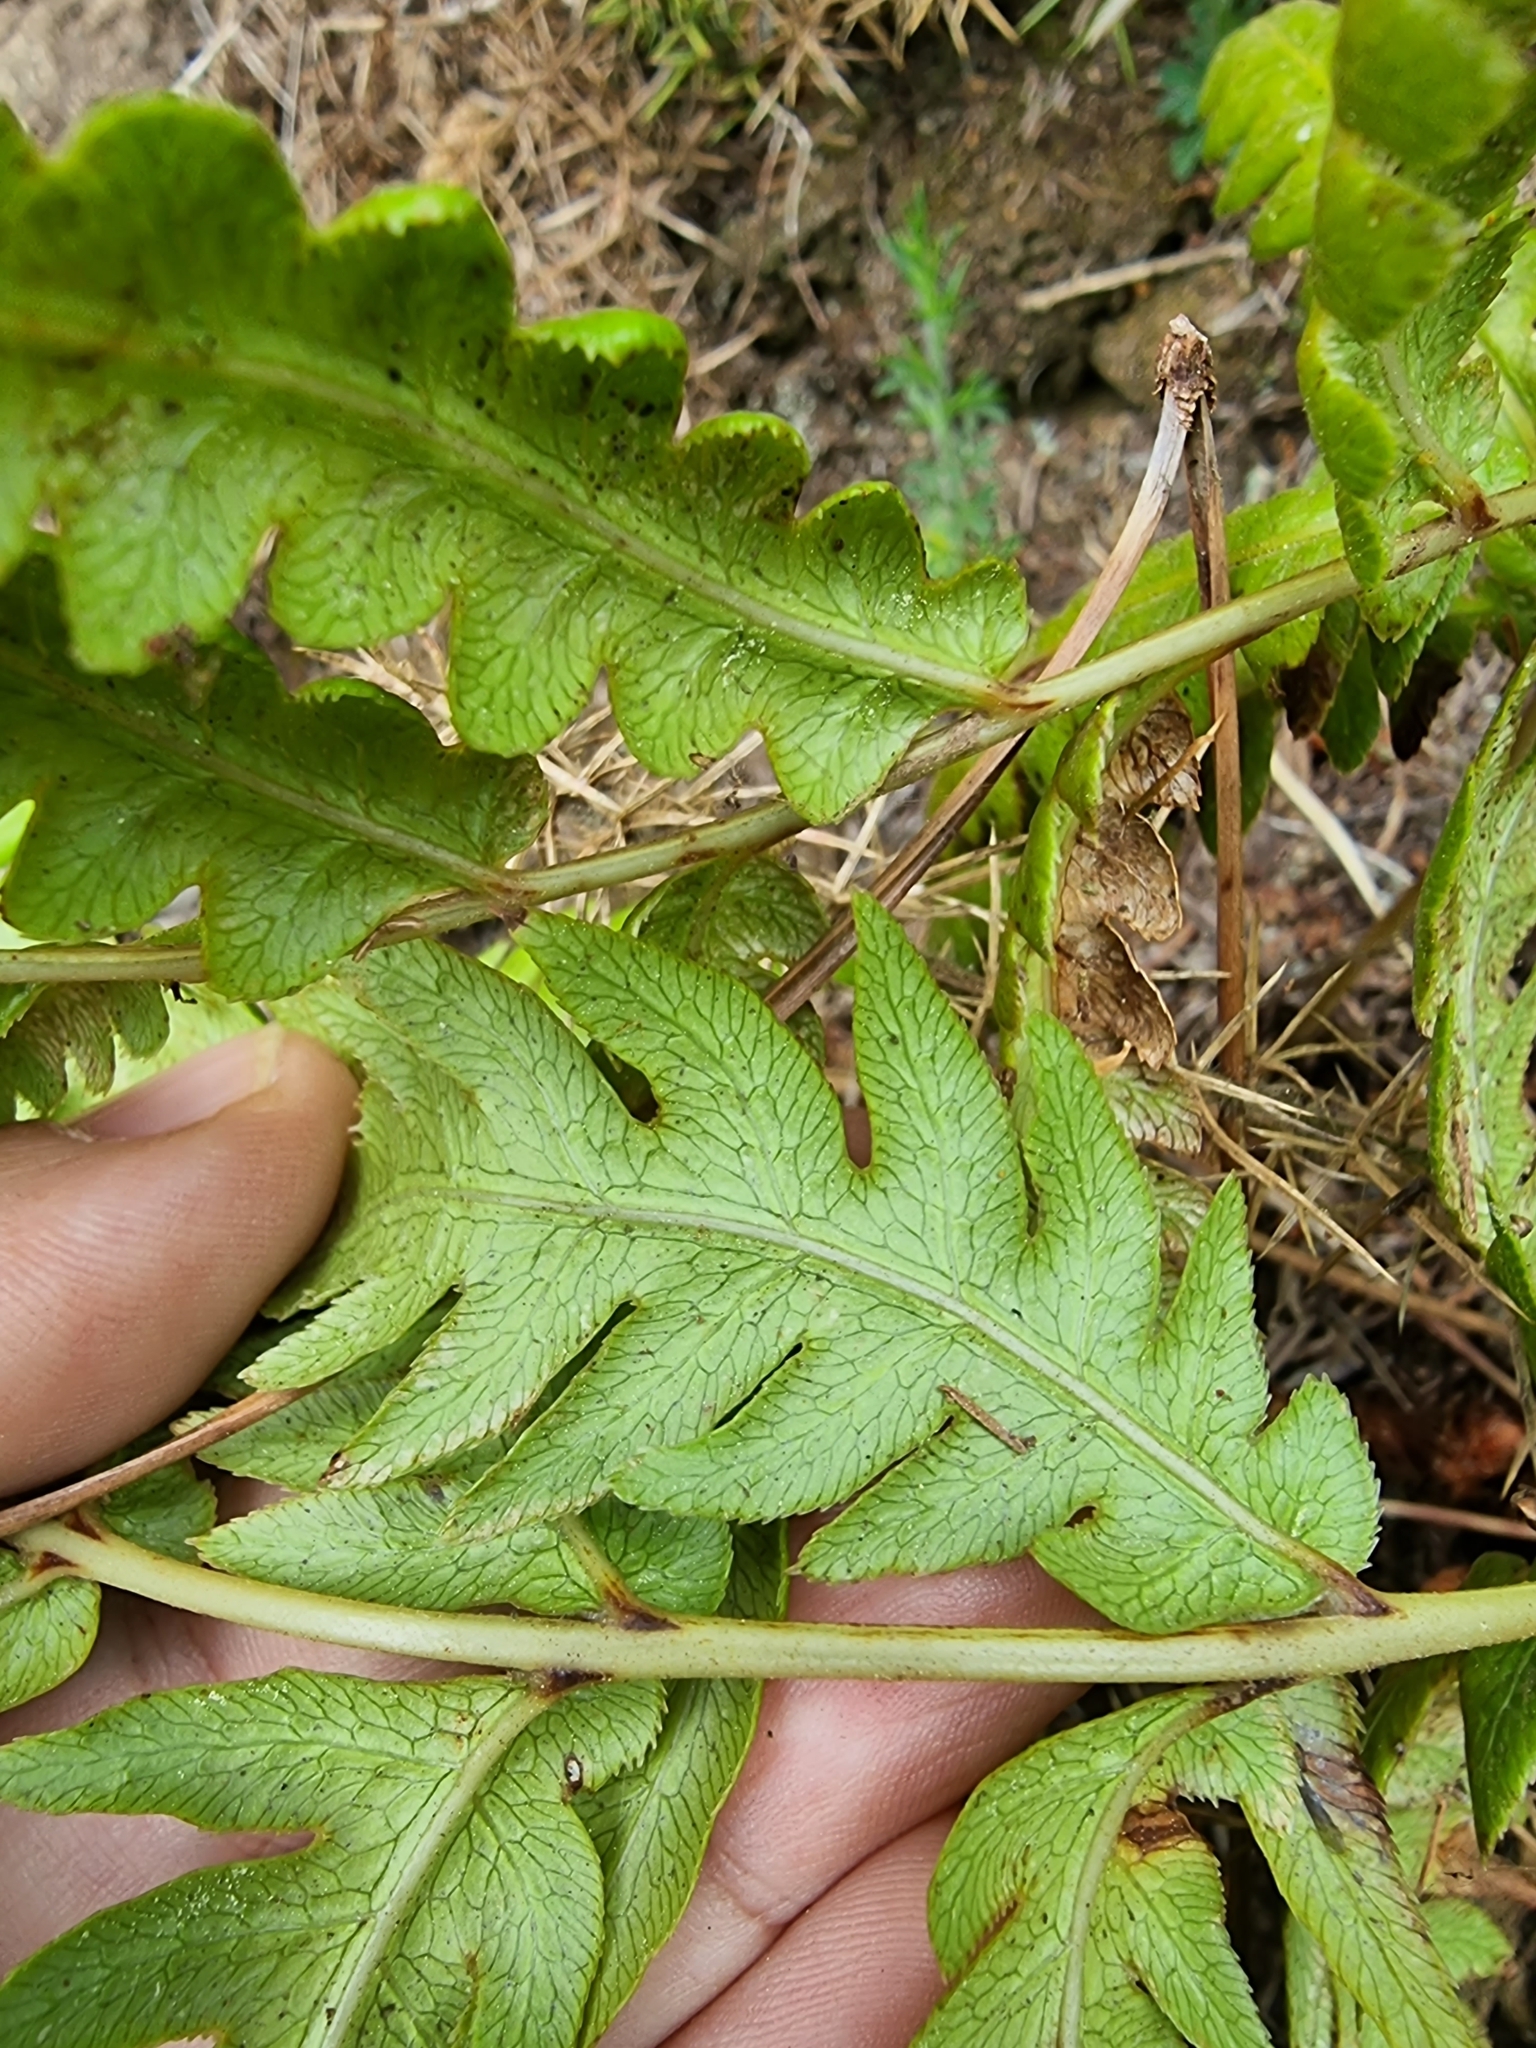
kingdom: Plantae
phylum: Tracheophyta
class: Polypodiopsida
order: Polypodiales
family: Blechnaceae
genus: Woodwardia
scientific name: Woodwardia radicans
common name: Rooting chainfern
